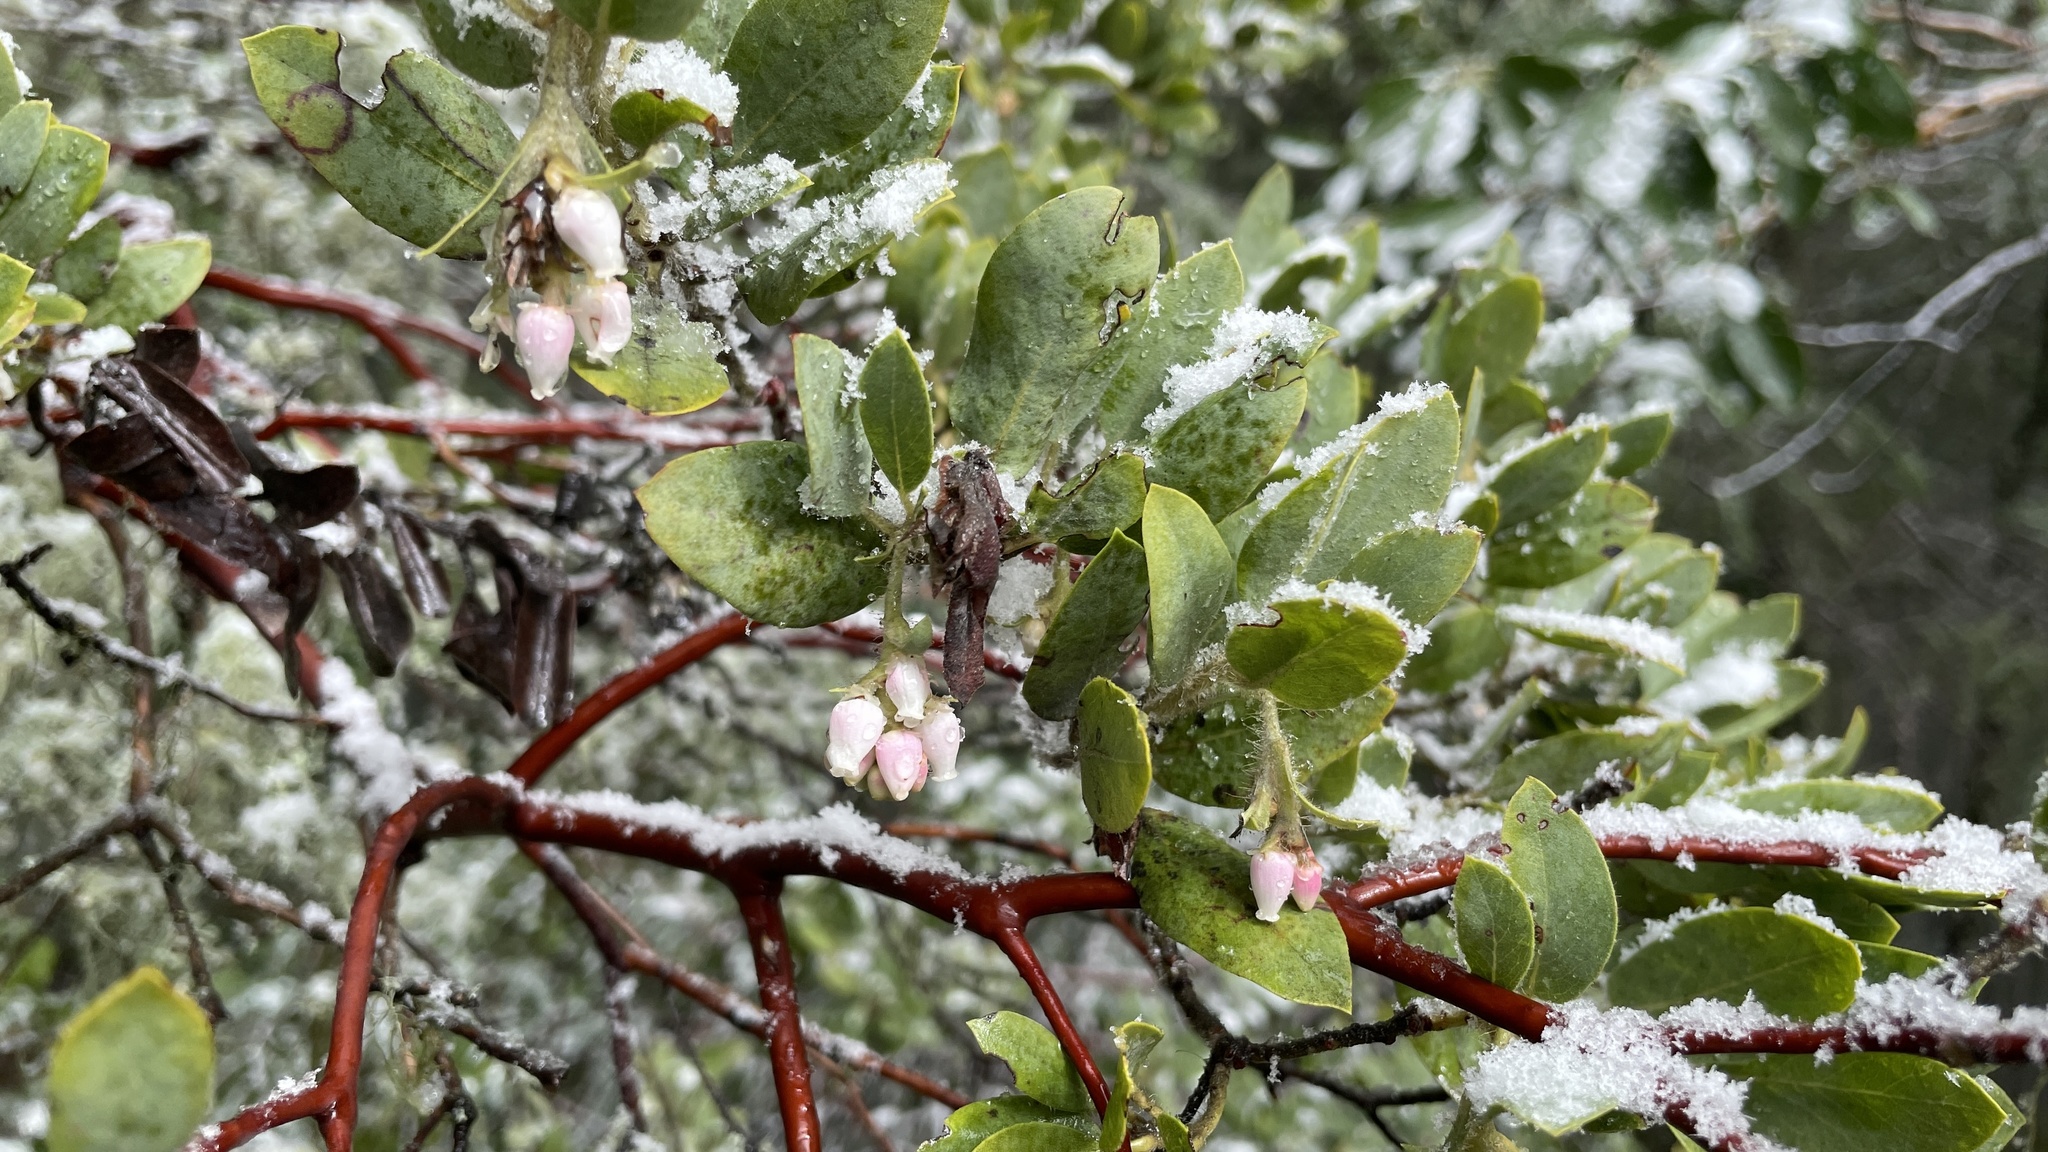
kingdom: Plantae
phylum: Tracheophyta
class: Magnoliopsida
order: Ericales
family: Ericaceae
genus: Arctostaphylos
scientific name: Arctostaphylos columbiana
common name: Bristly bearberry
